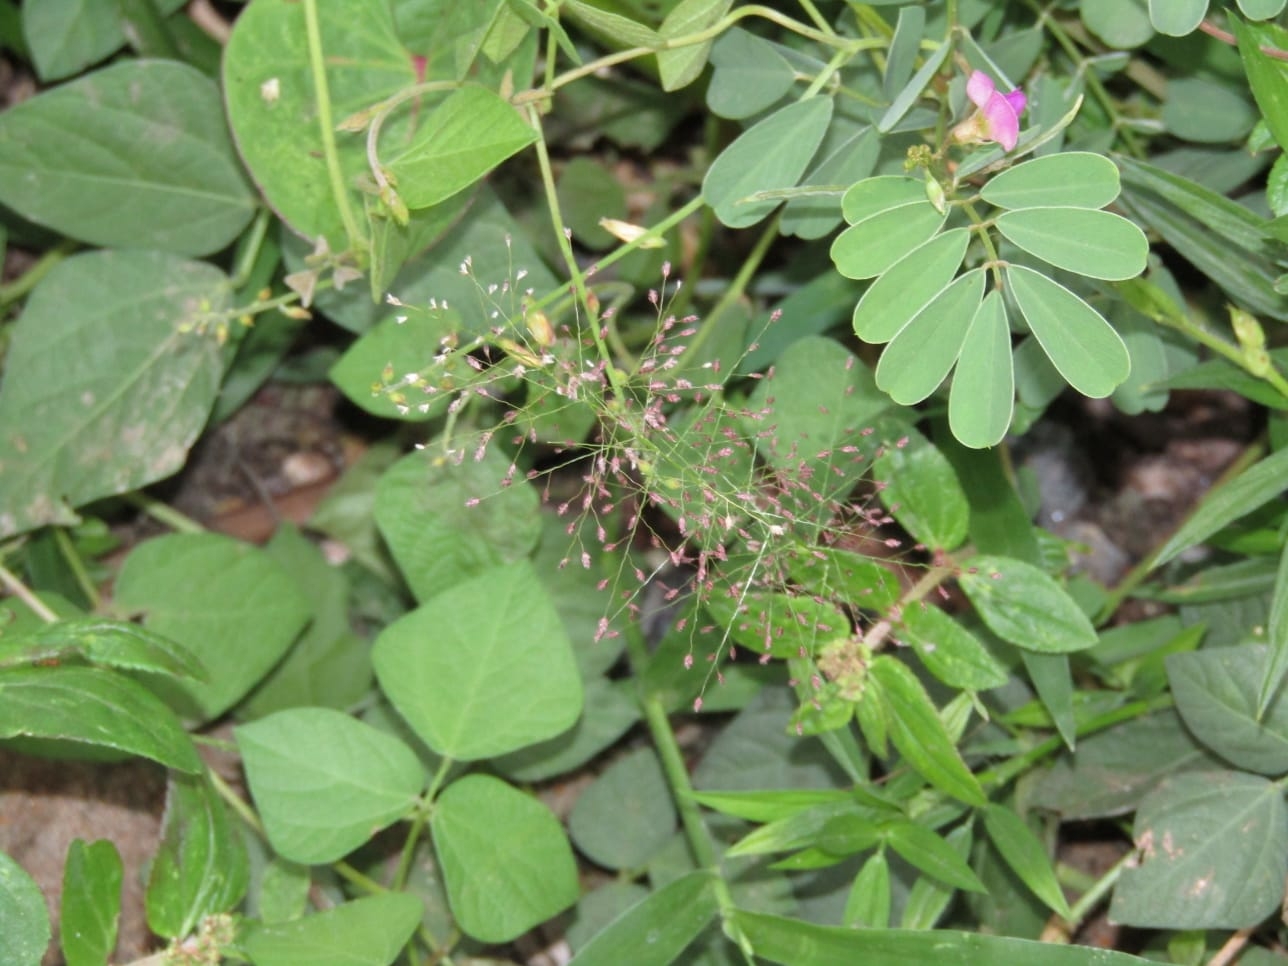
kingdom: Plantae
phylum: Tracheophyta
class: Liliopsida
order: Poales
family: Poaceae
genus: Eragrostis
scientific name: Eragrostis tenella
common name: Japanese lovegrass
